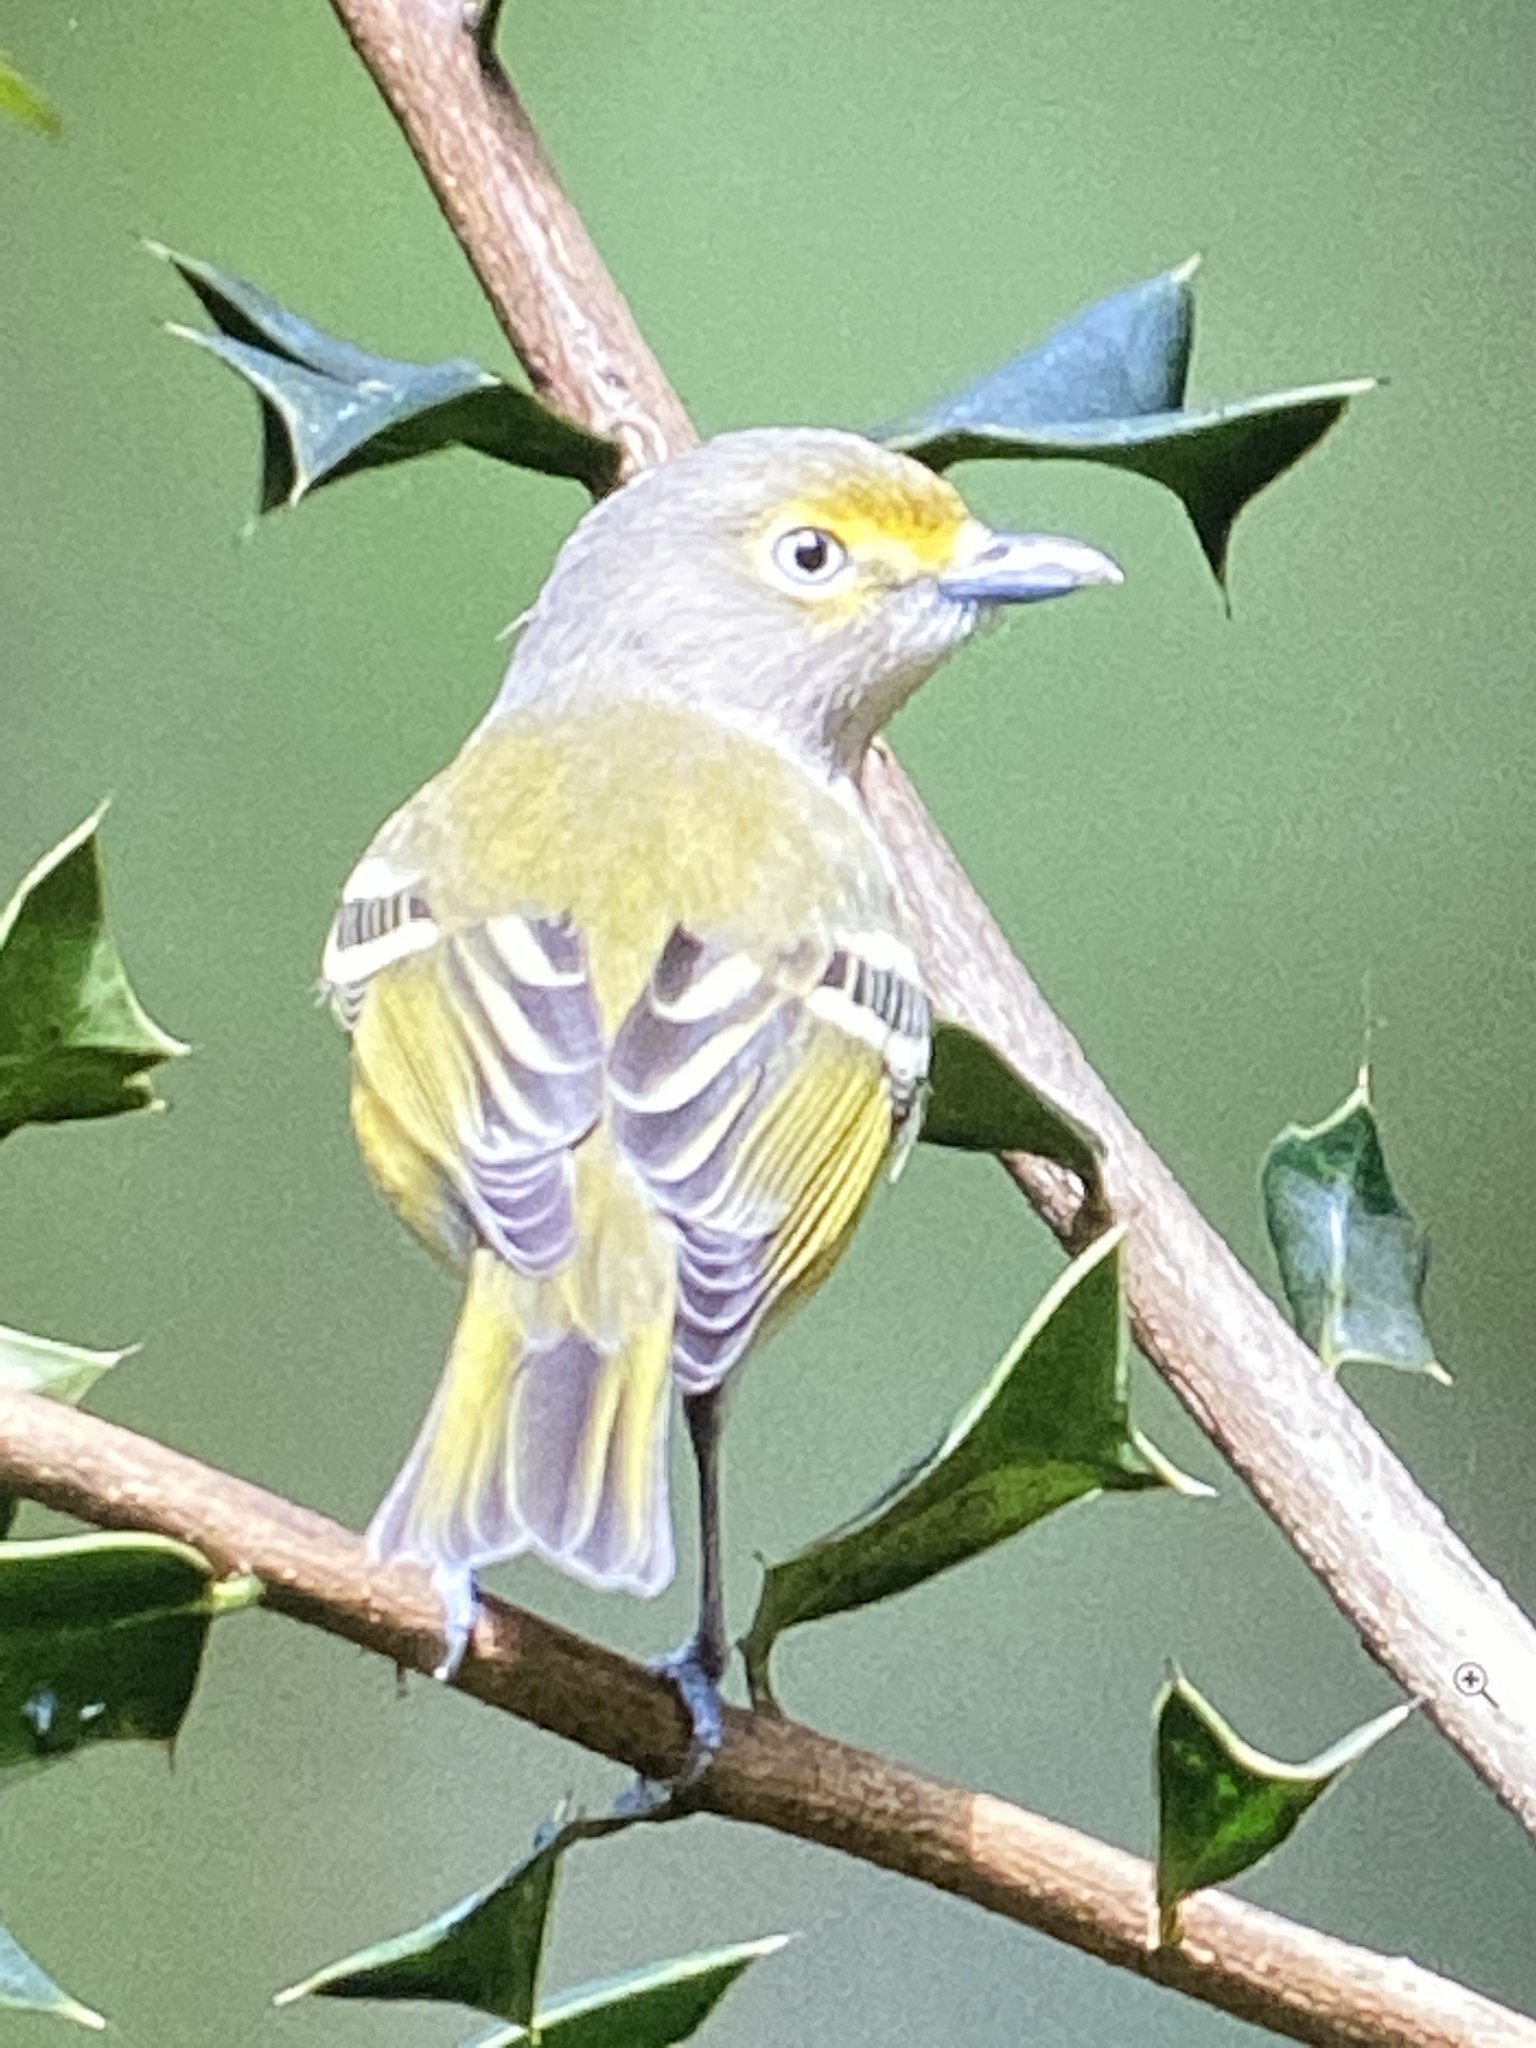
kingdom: Animalia
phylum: Chordata
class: Aves
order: Passeriformes
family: Vireonidae
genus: Vireo
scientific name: Vireo griseus
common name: White-eyed vireo
